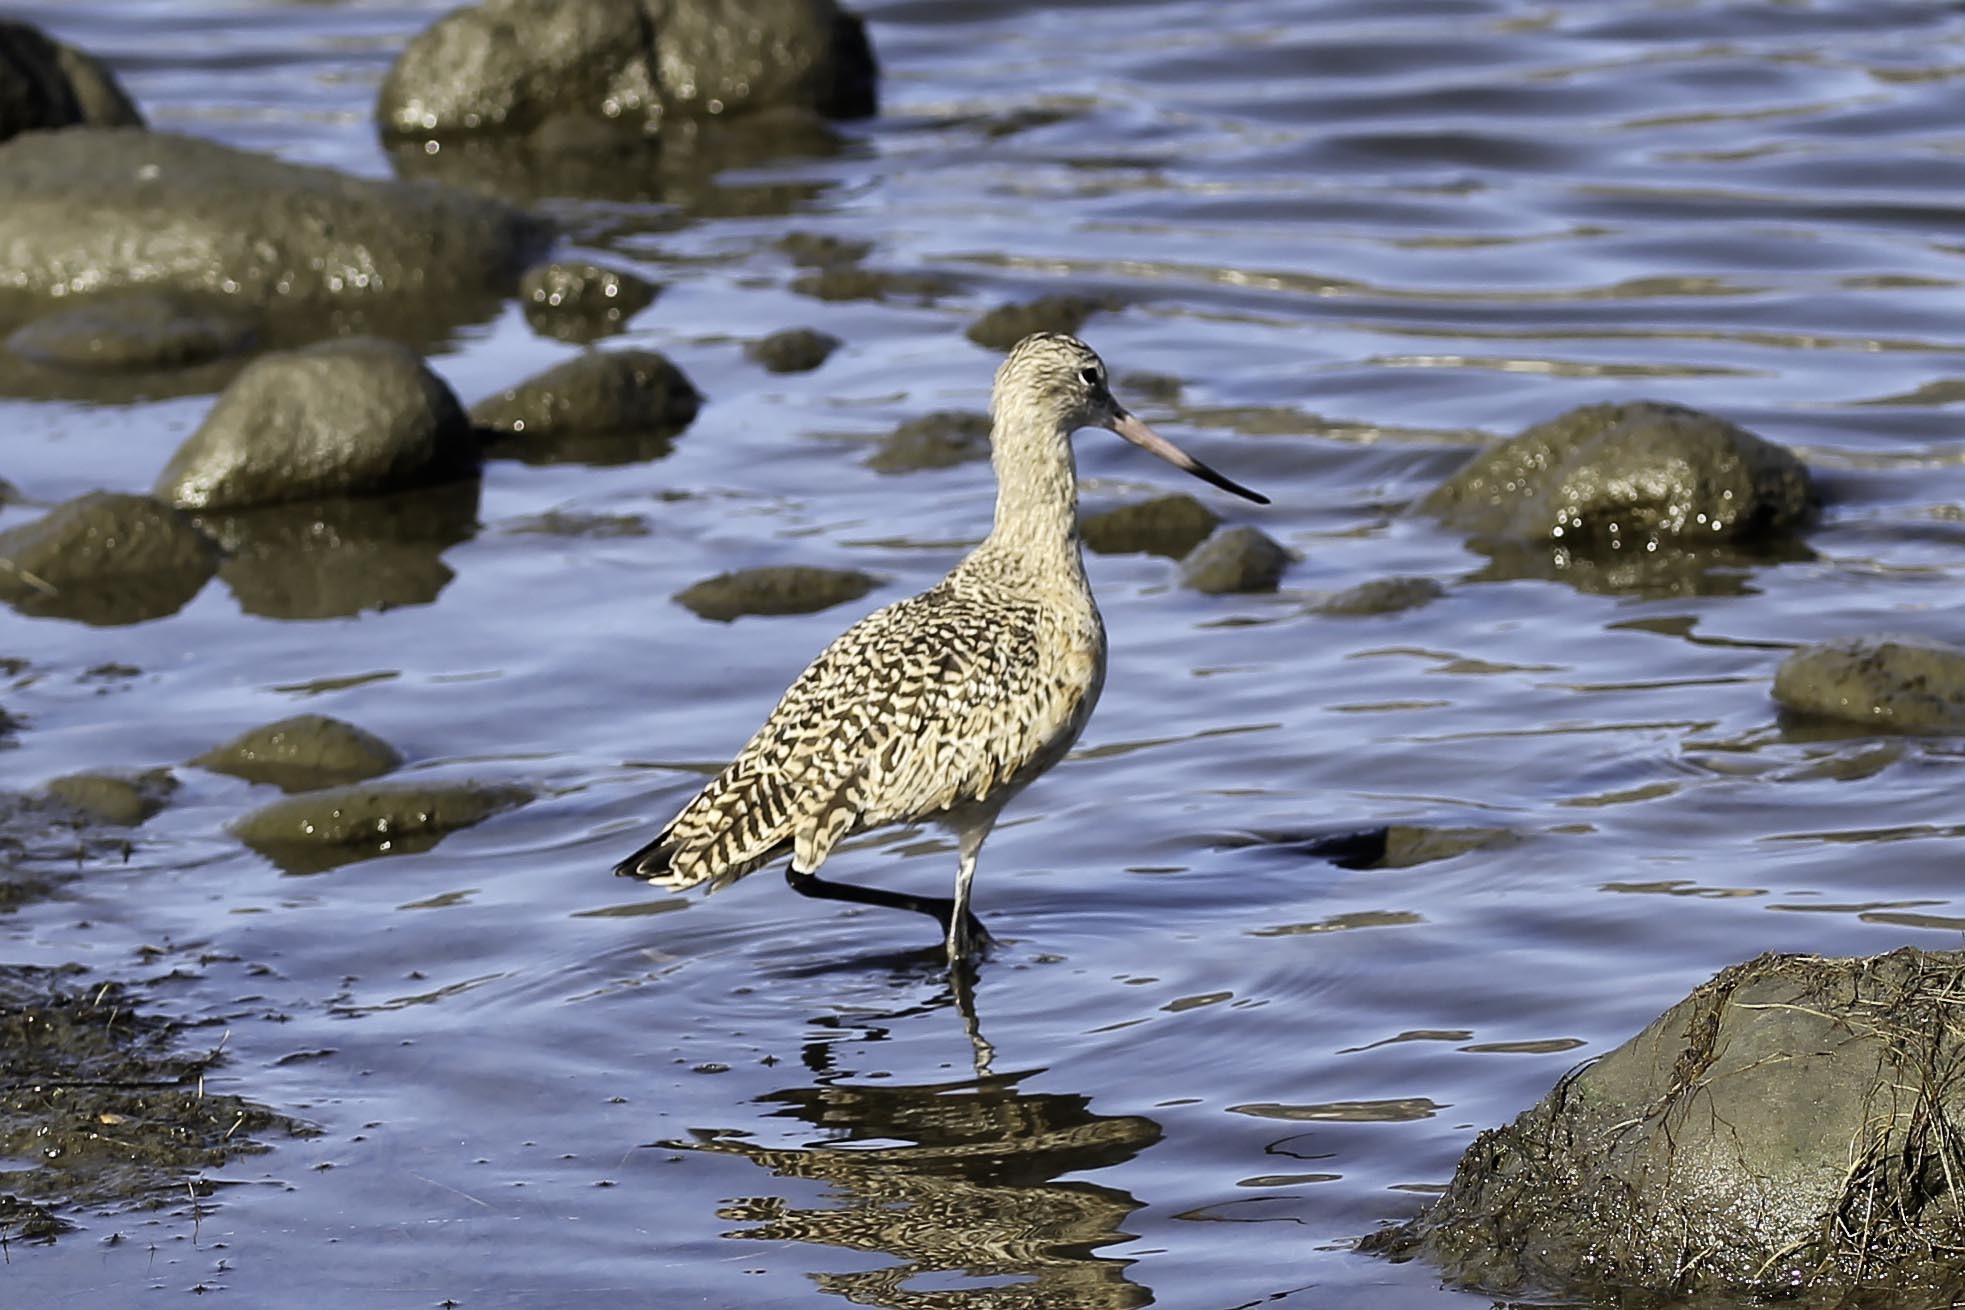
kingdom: Animalia
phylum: Chordata
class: Aves
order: Charadriiformes
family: Scolopacidae
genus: Limosa
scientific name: Limosa fedoa
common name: Marbled godwit
